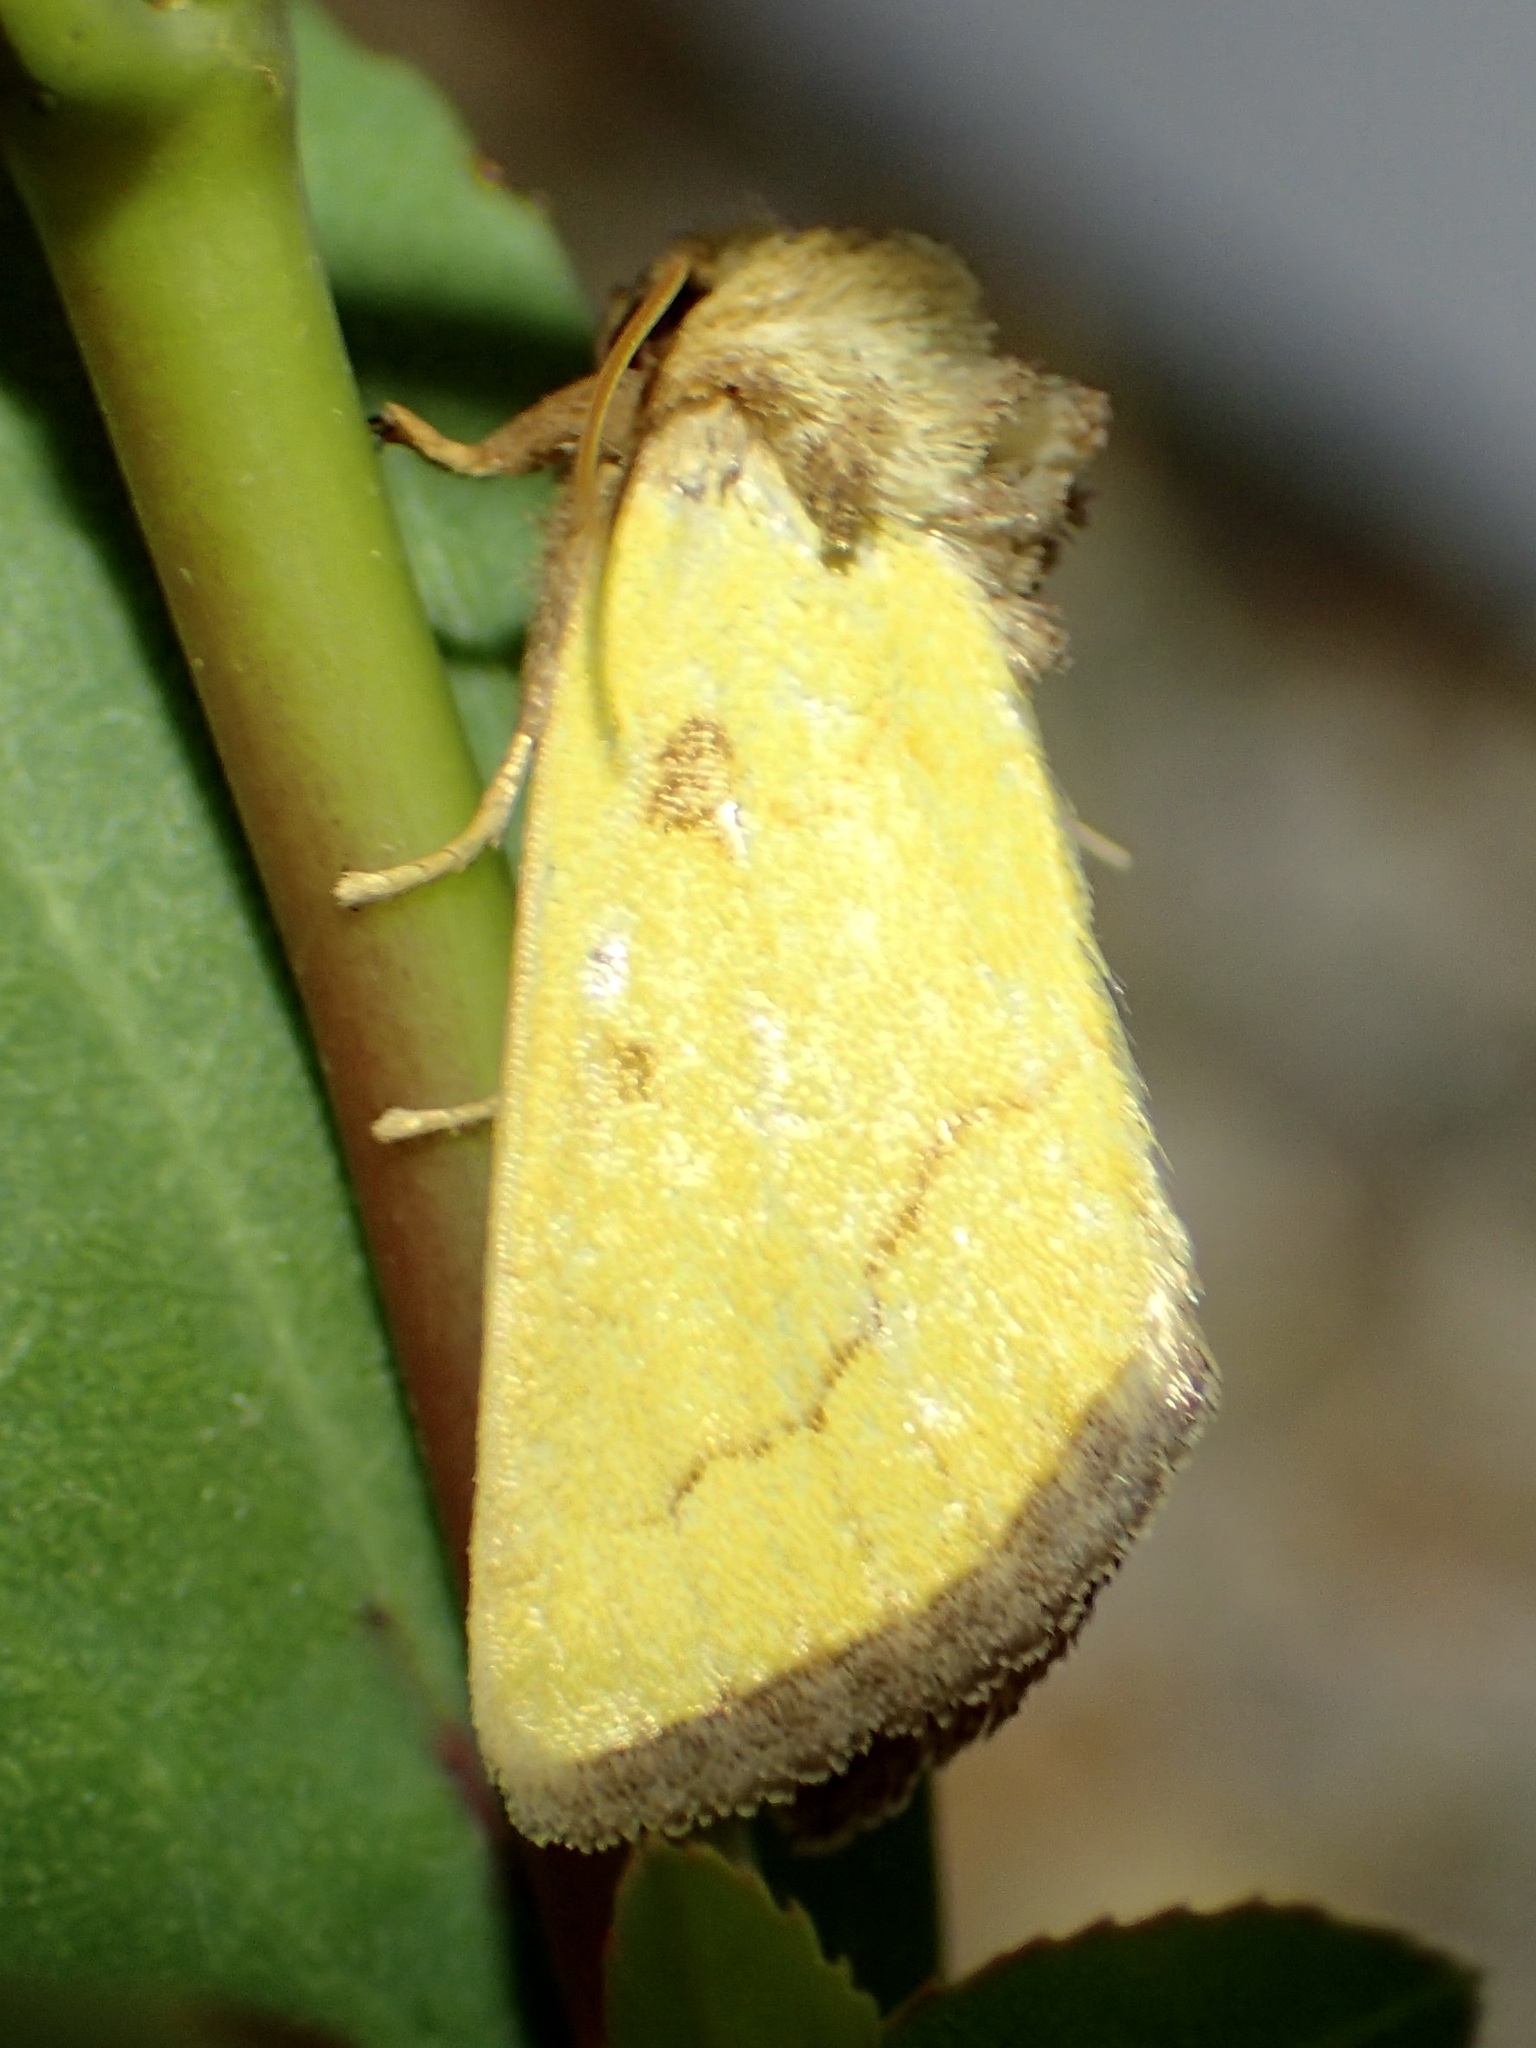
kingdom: Animalia
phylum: Arthropoda
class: Insecta
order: Lepidoptera
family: Noctuidae
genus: Nocloa
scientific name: Nocloa aliaga
